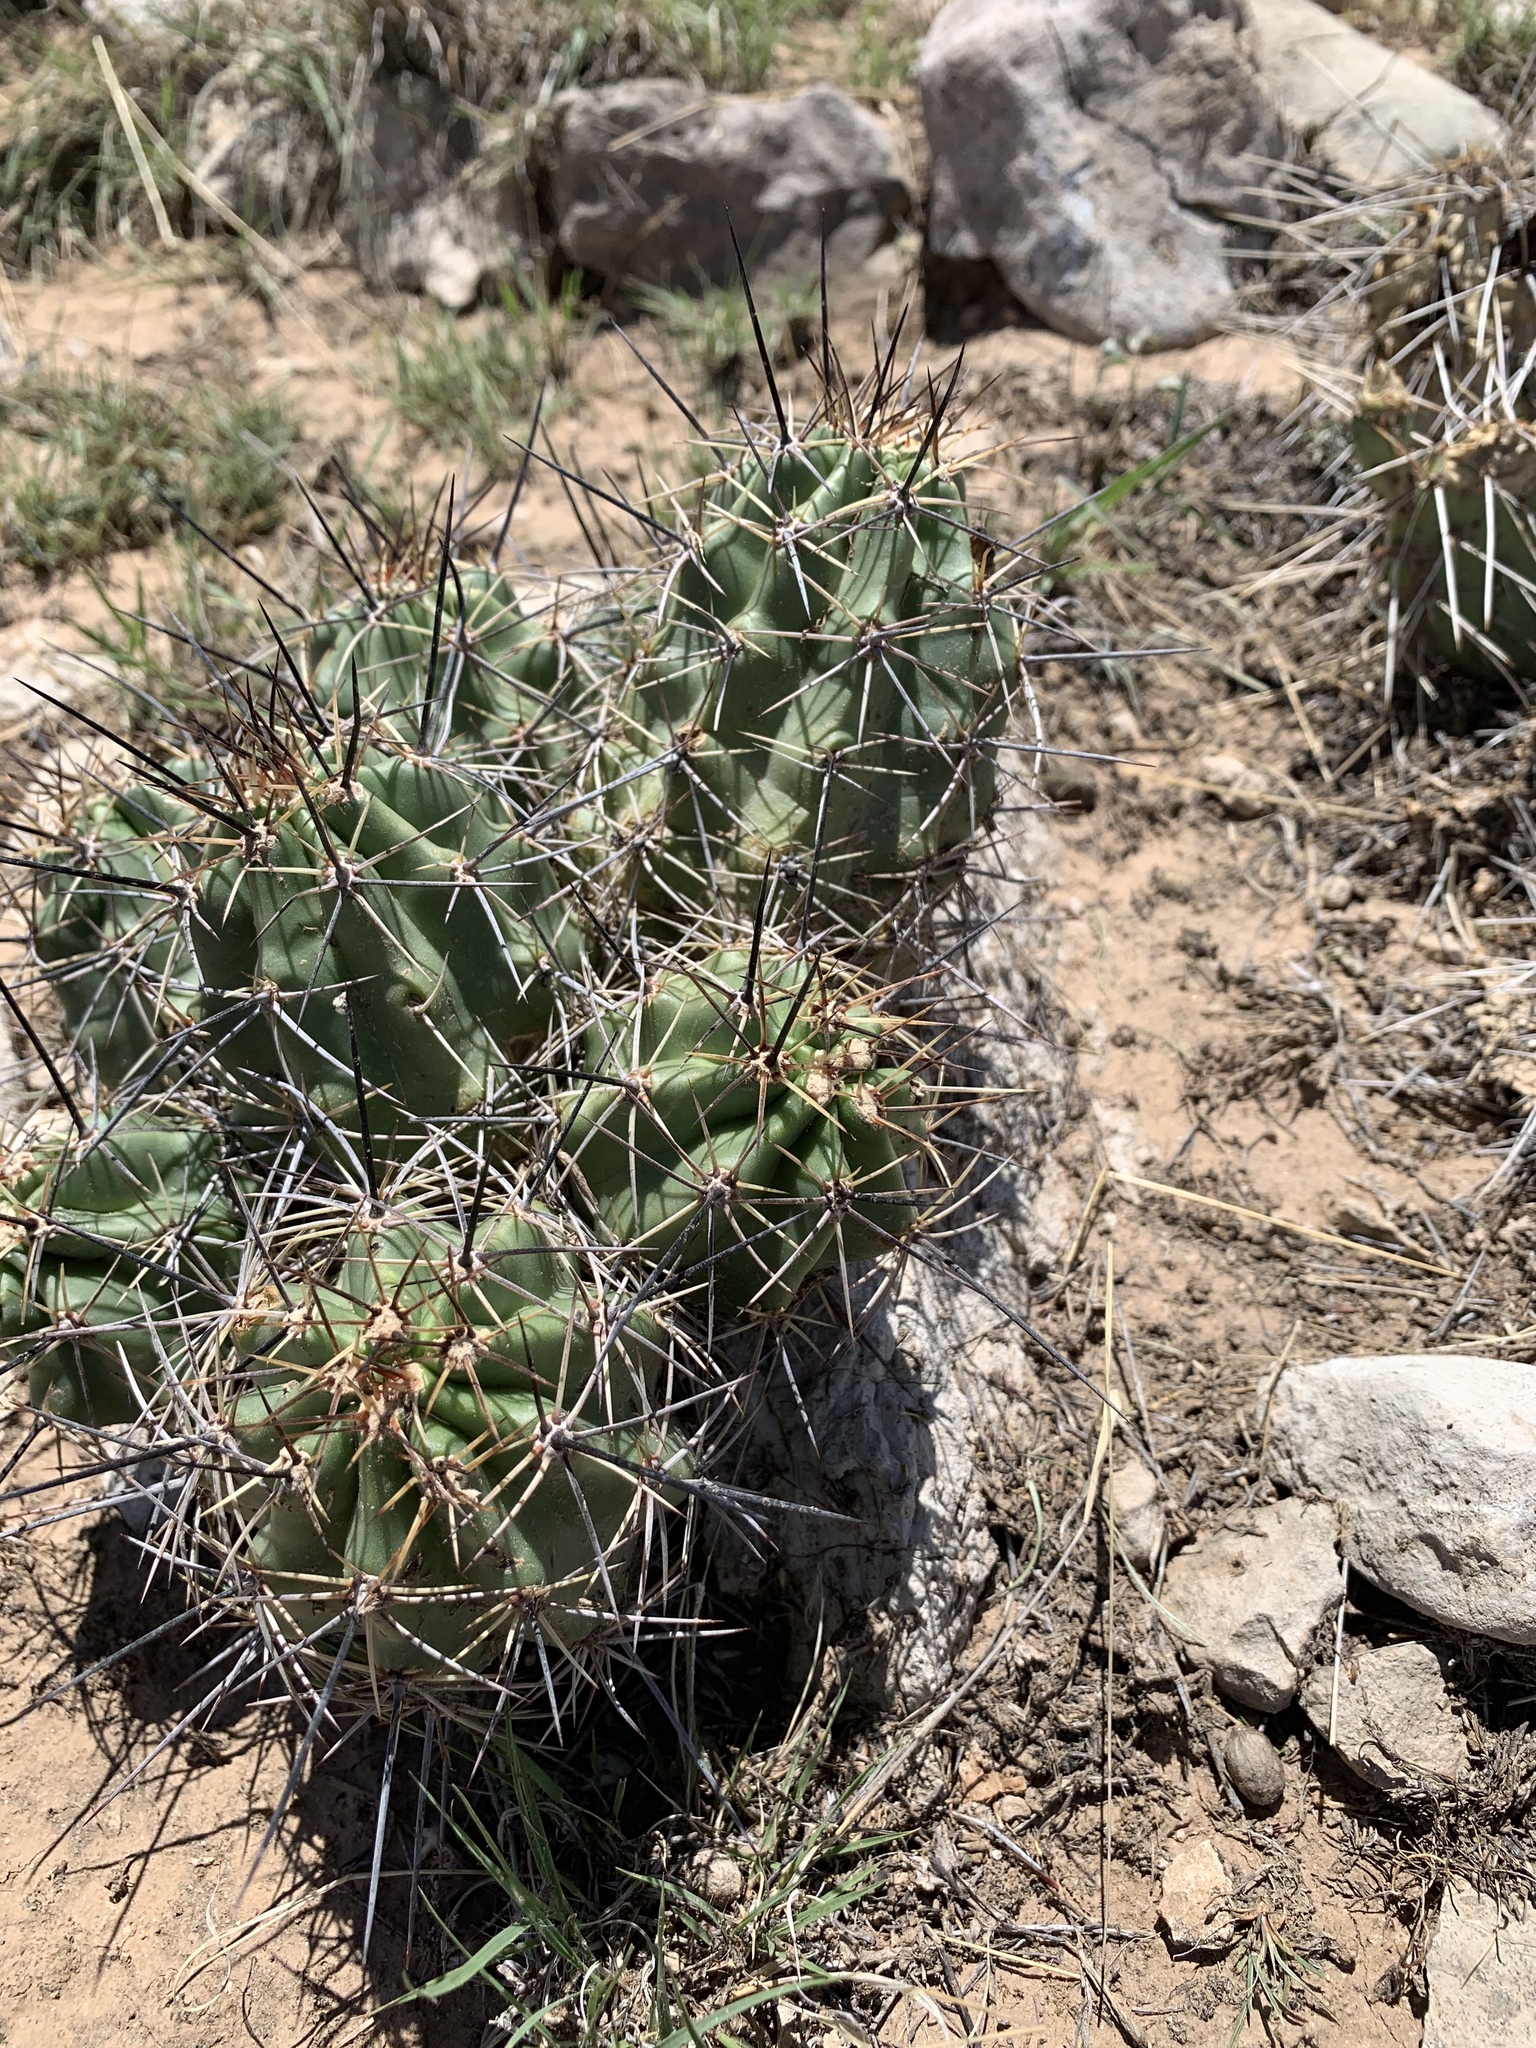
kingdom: Plantae
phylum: Tracheophyta
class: Magnoliopsida
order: Caryophyllales
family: Cactaceae
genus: Echinocereus
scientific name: Echinocereus coccineus
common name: Scarlet hedgehog cactus
